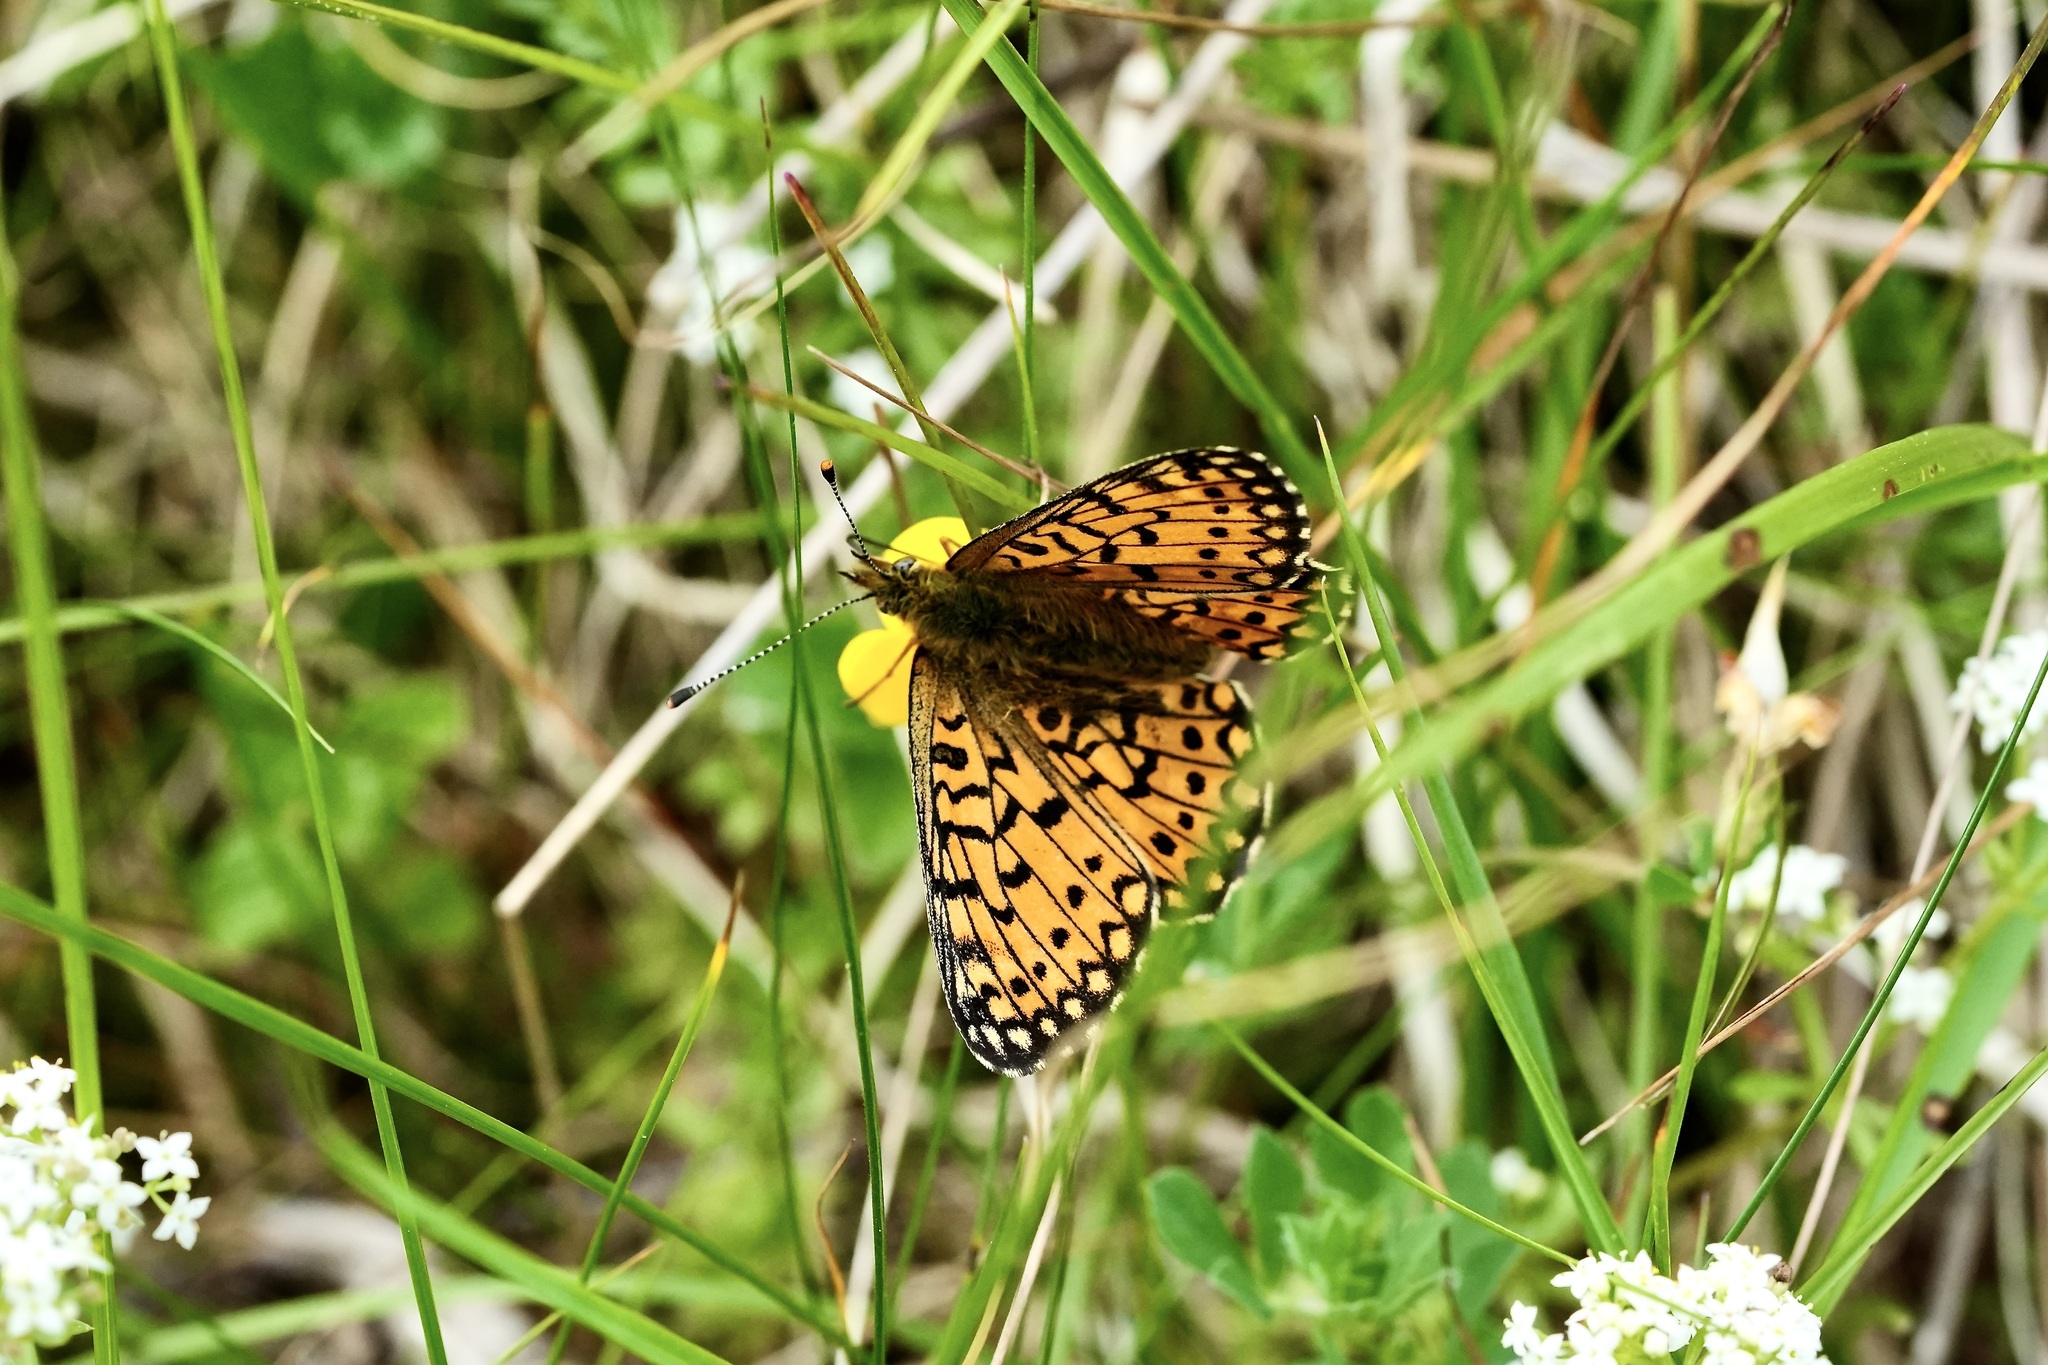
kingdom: Animalia
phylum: Arthropoda
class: Insecta
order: Lepidoptera
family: Nymphalidae
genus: Boloria
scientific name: Boloria selene
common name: Small pearl-bordered fritillary
